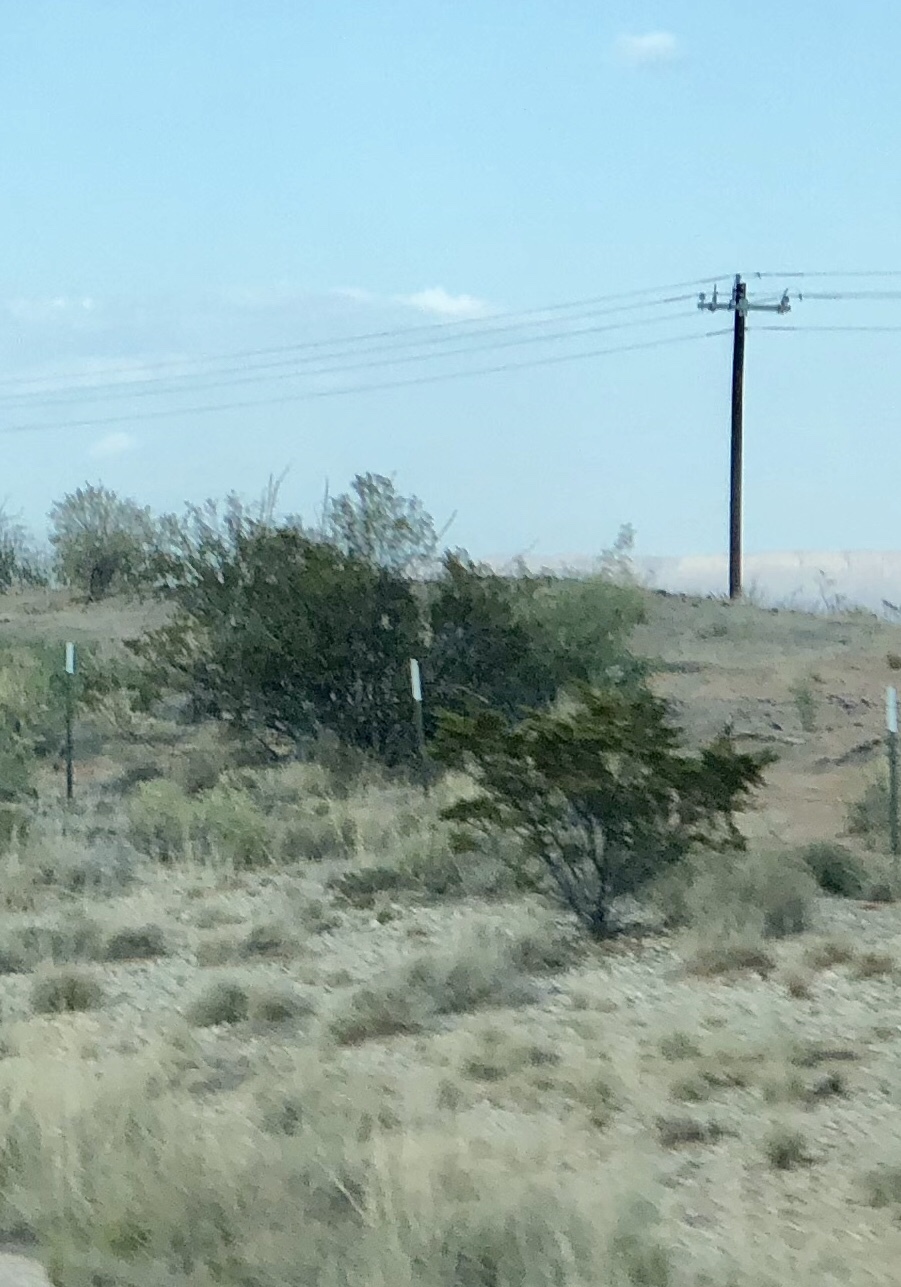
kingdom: Plantae
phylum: Tracheophyta
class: Magnoliopsida
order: Zygophyllales
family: Zygophyllaceae
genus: Larrea
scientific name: Larrea tridentata
